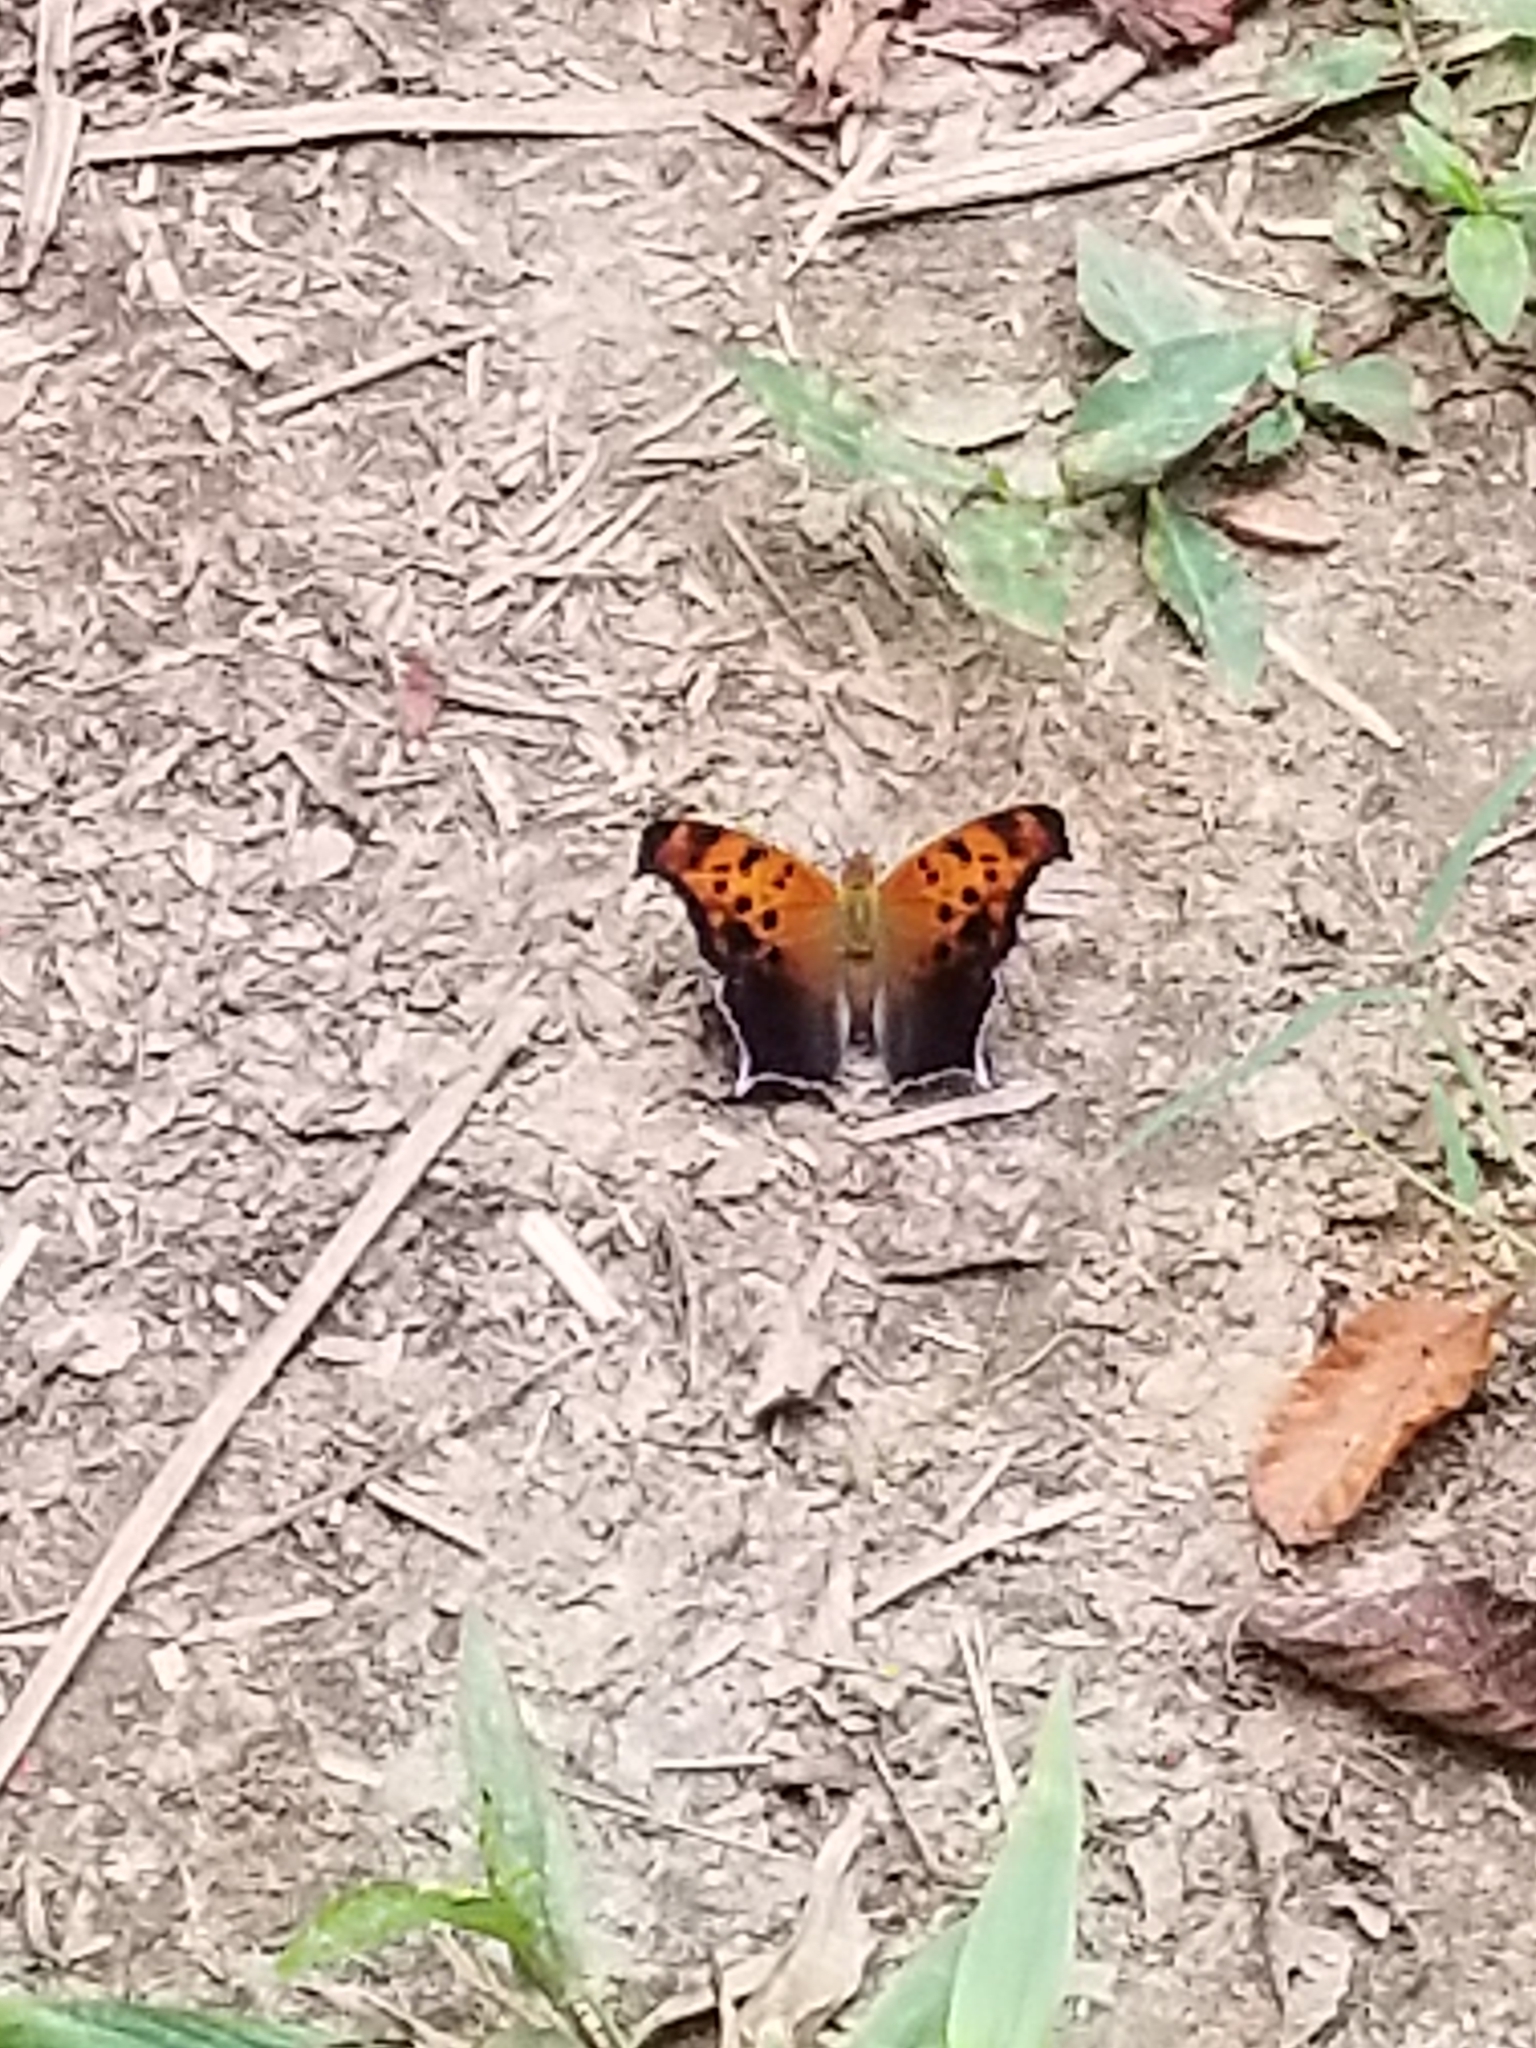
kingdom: Animalia
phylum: Arthropoda
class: Insecta
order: Lepidoptera
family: Nymphalidae
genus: Polygonia
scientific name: Polygonia interrogationis
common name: Question mark
